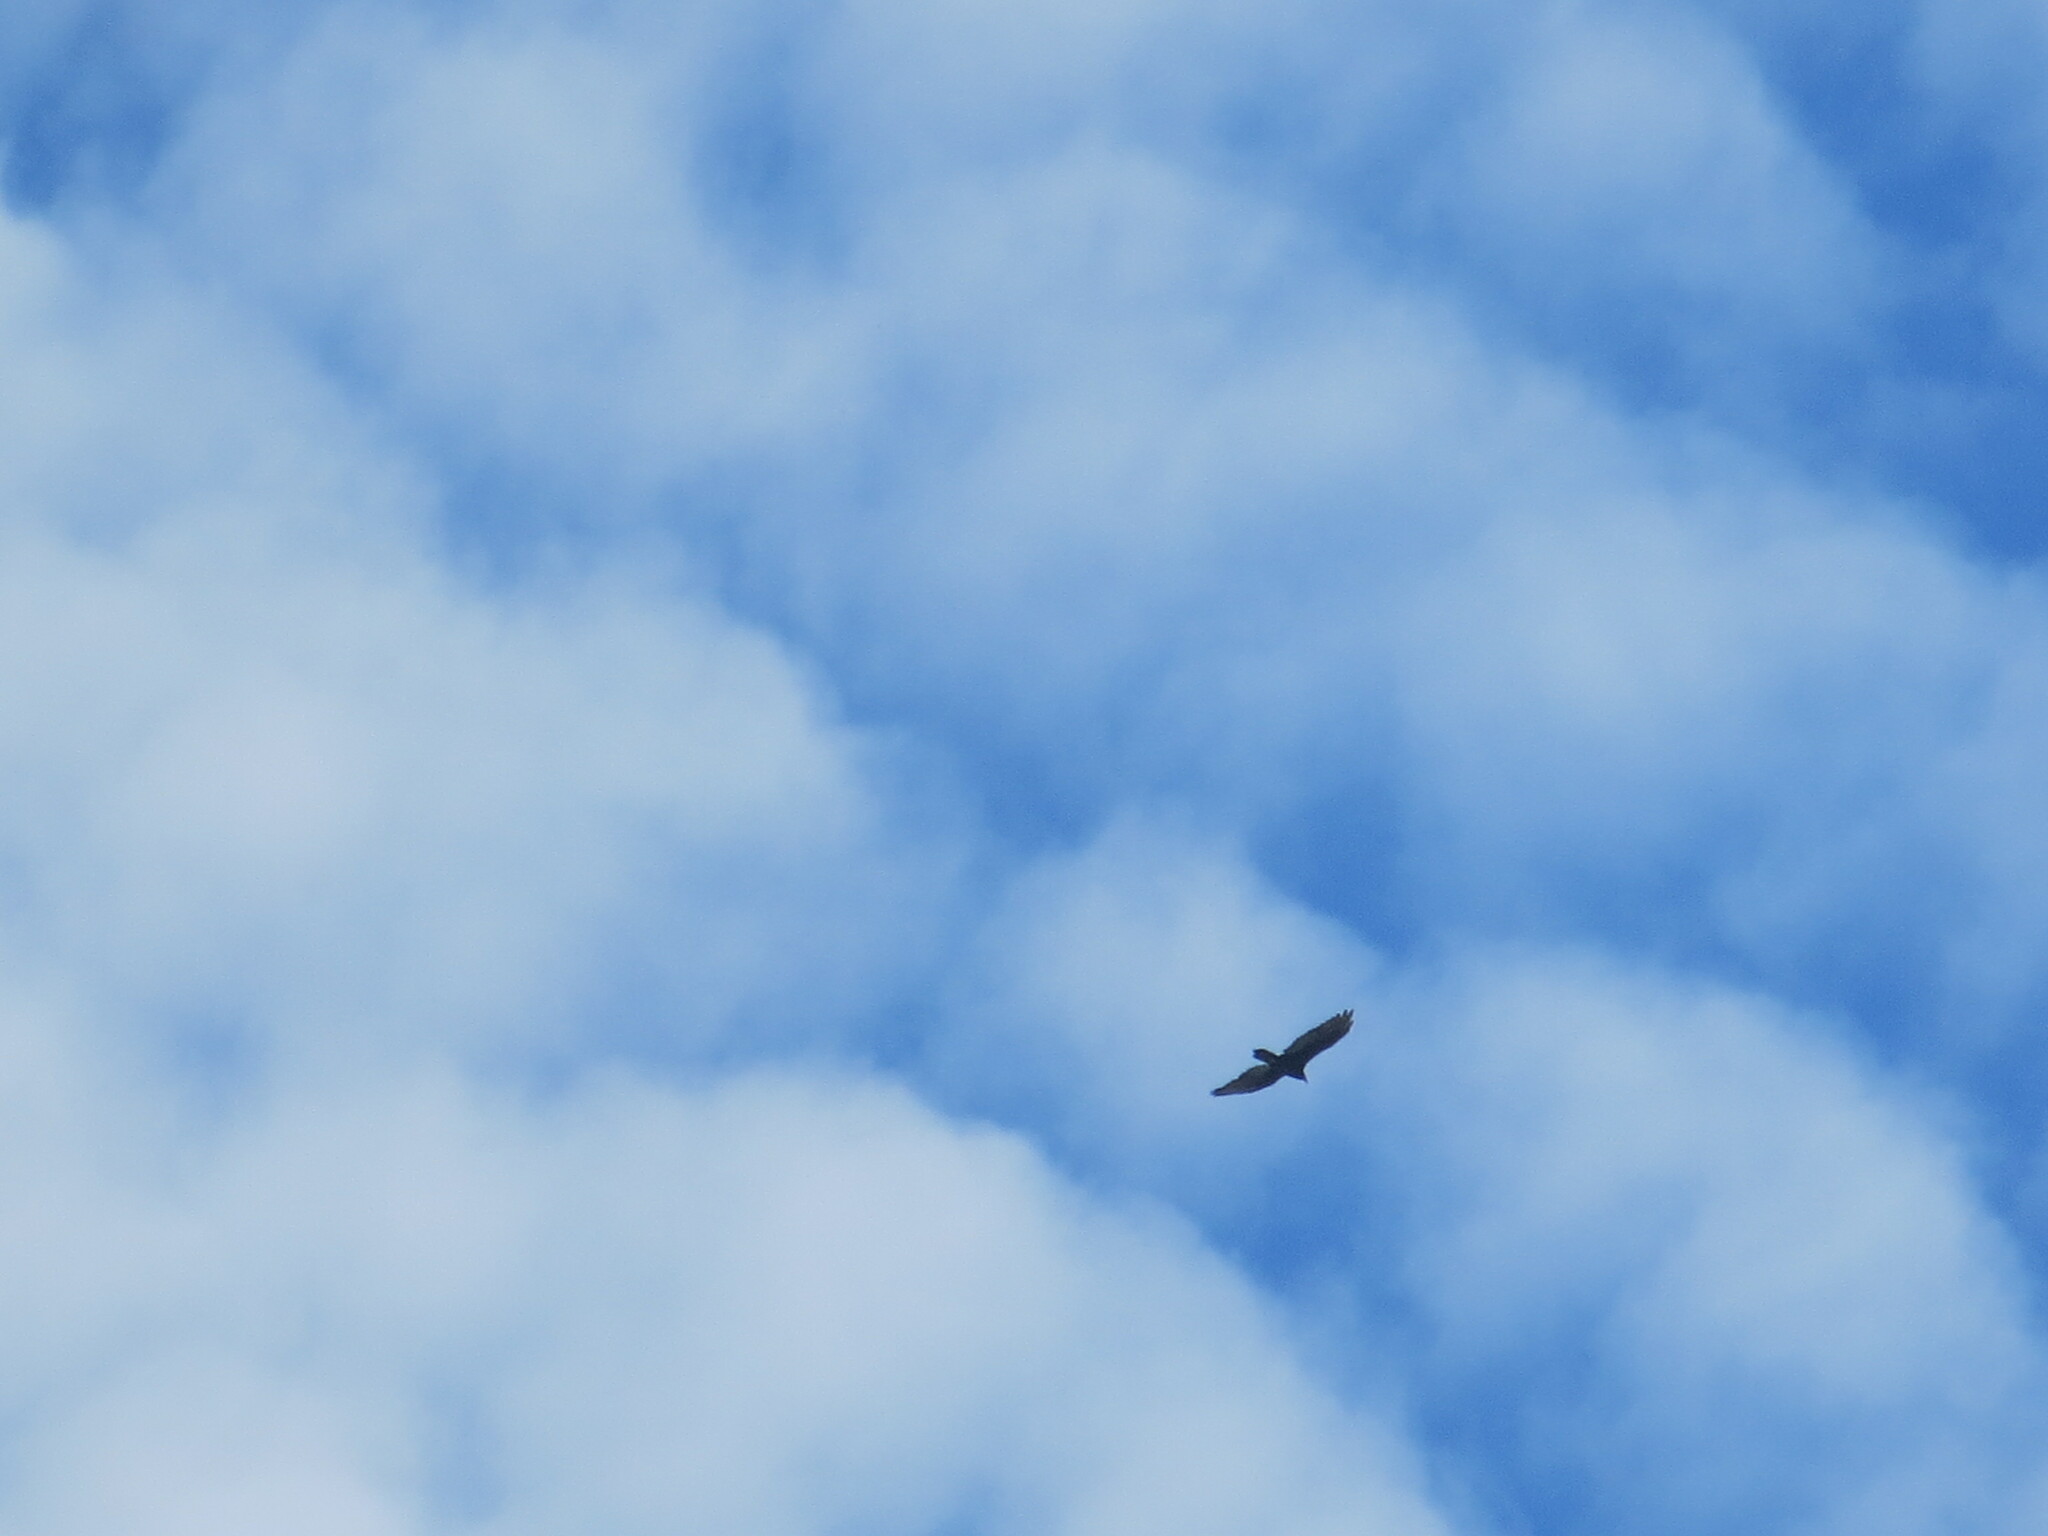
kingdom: Animalia
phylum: Chordata
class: Aves
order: Accipitriformes
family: Cathartidae
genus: Cathartes
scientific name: Cathartes aura
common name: Turkey vulture
